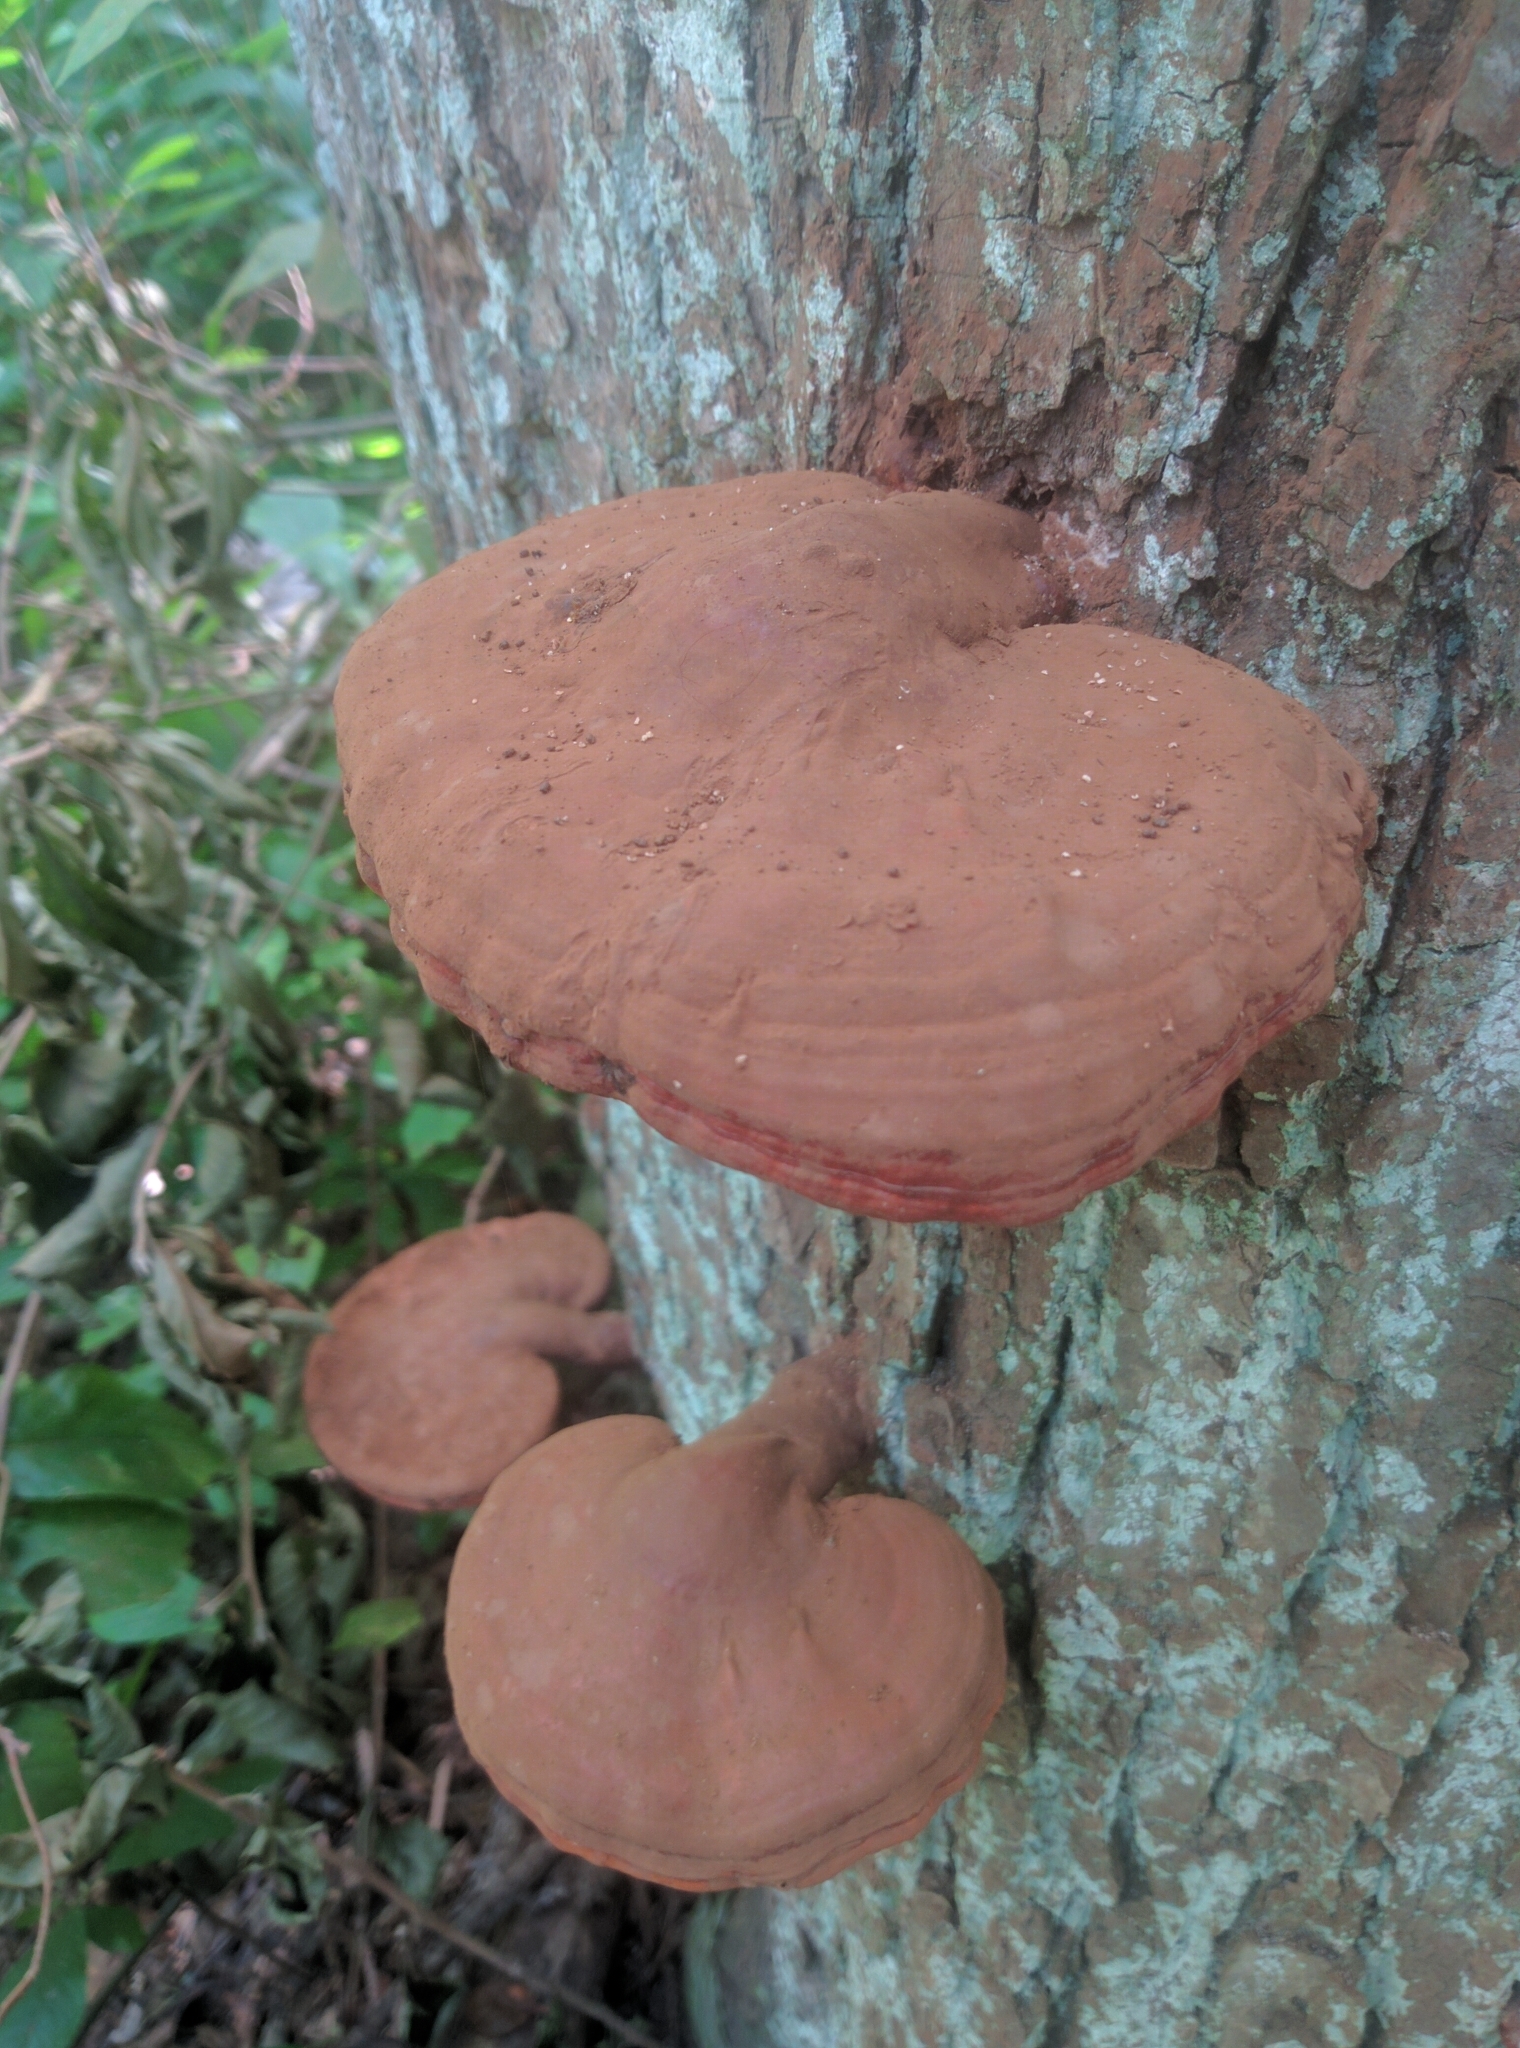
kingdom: Fungi
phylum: Basidiomycota
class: Agaricomycetes
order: Polyporales
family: Polyporaceae
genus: Ganoderma
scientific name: Ganoderma applanatum
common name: Artist's bracket
